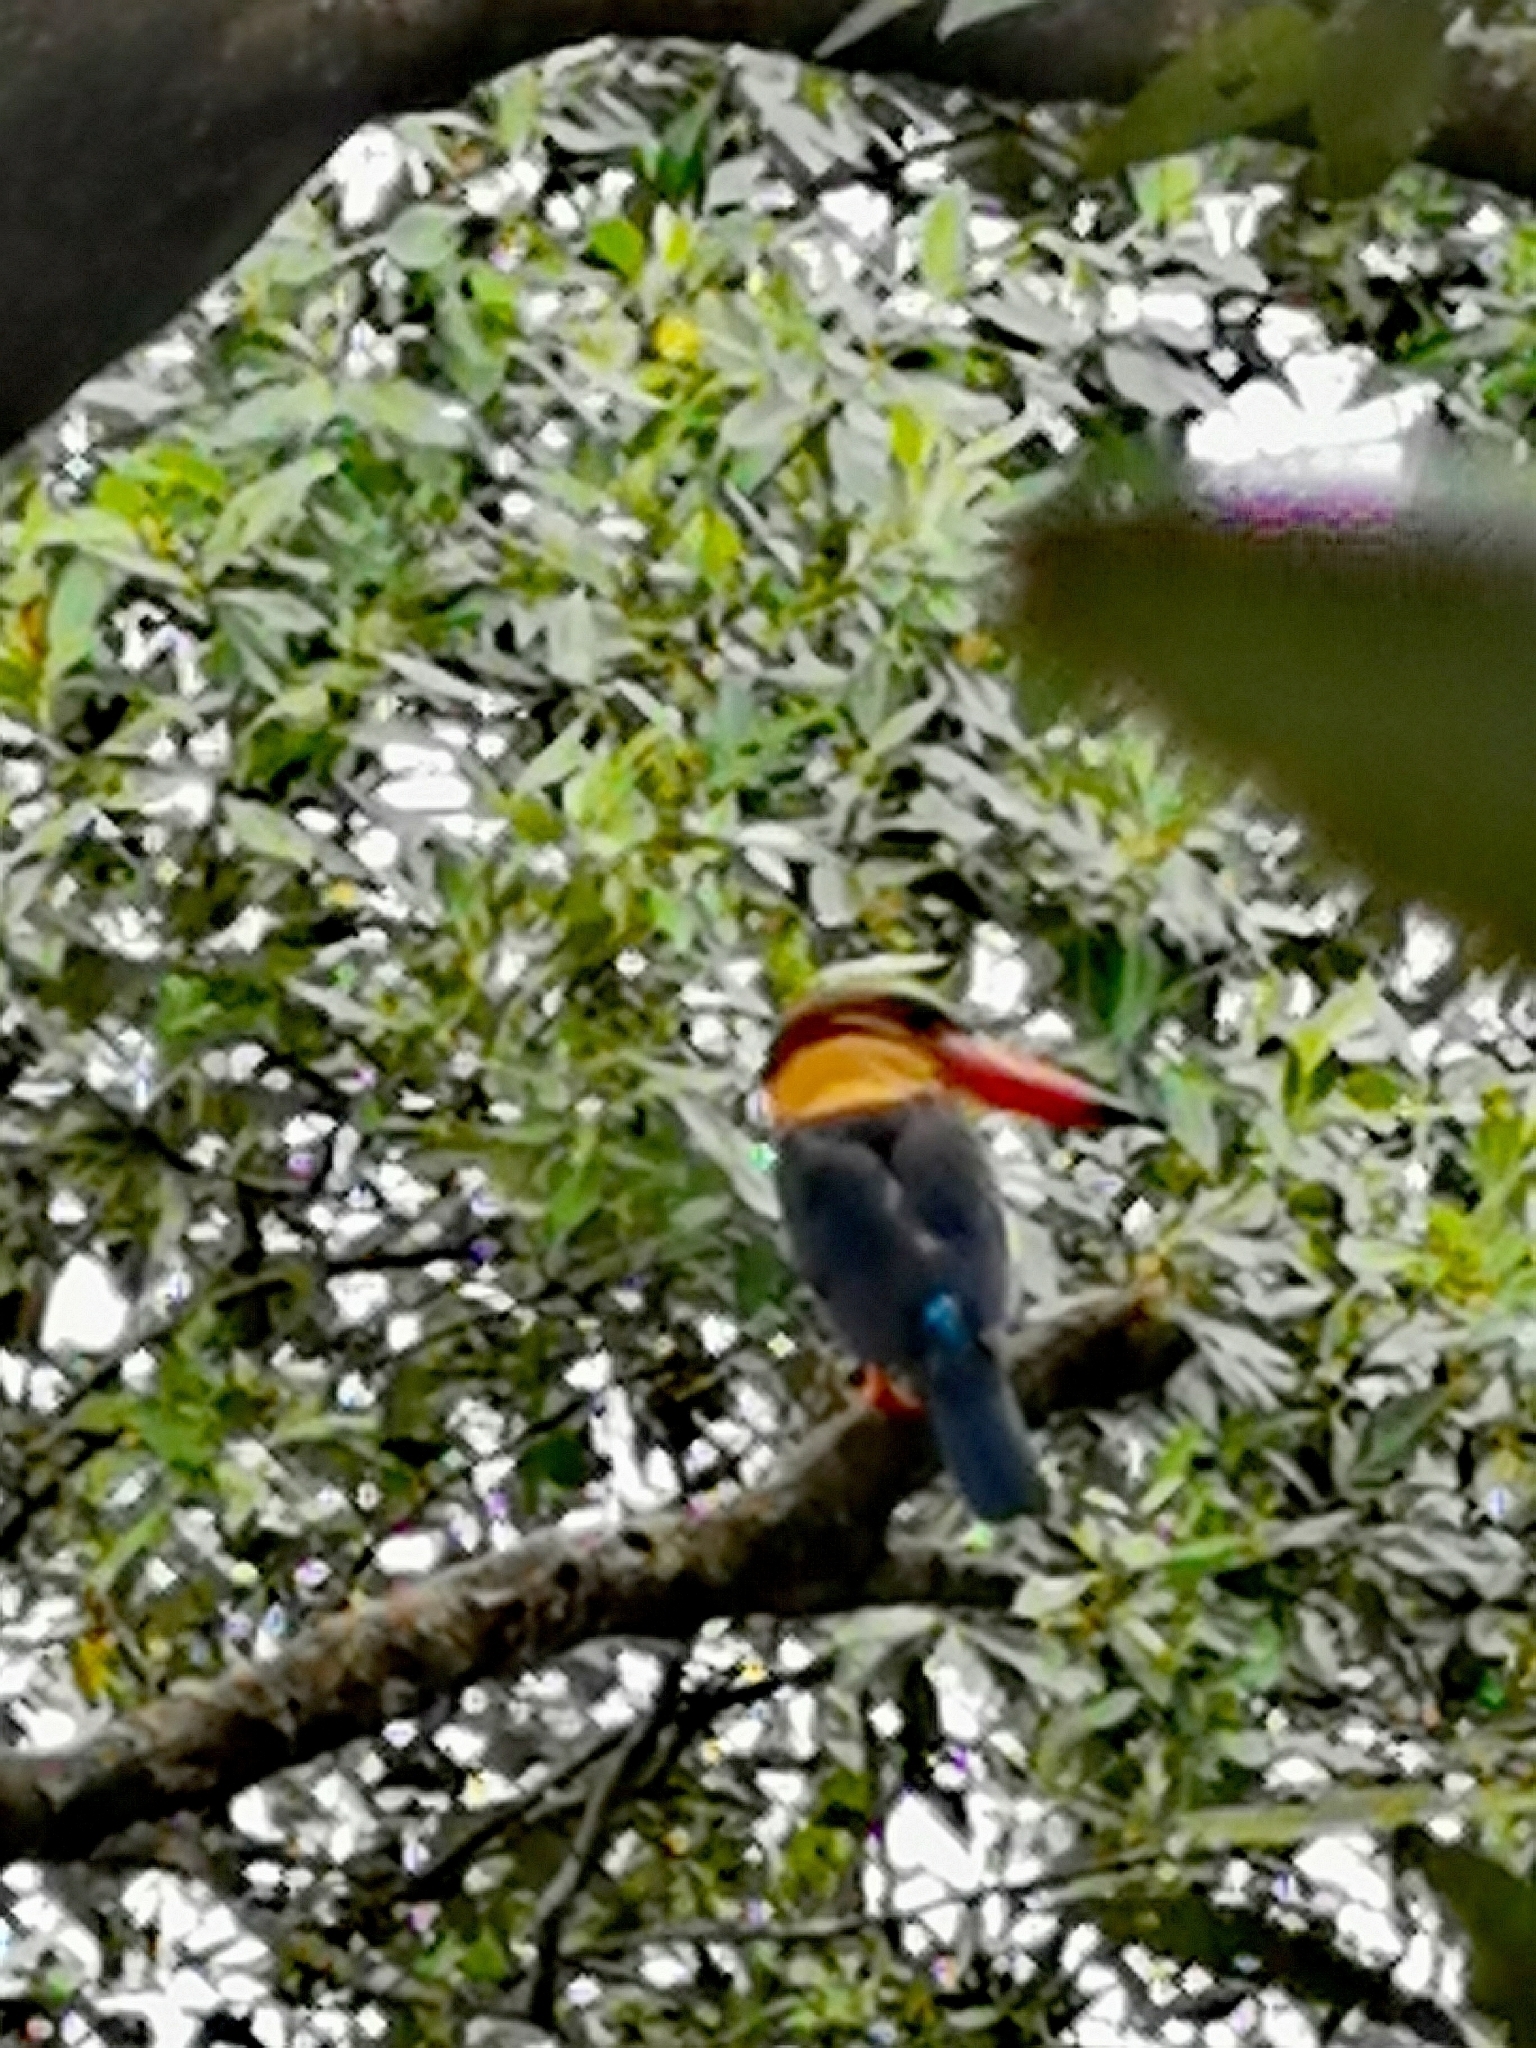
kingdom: Animalia
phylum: Chordata
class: Aves
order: Coraciiformes
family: Alcedinidae
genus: Pelargopsis
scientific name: Pelargopsis capensis
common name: Stork-billed kingfisher
